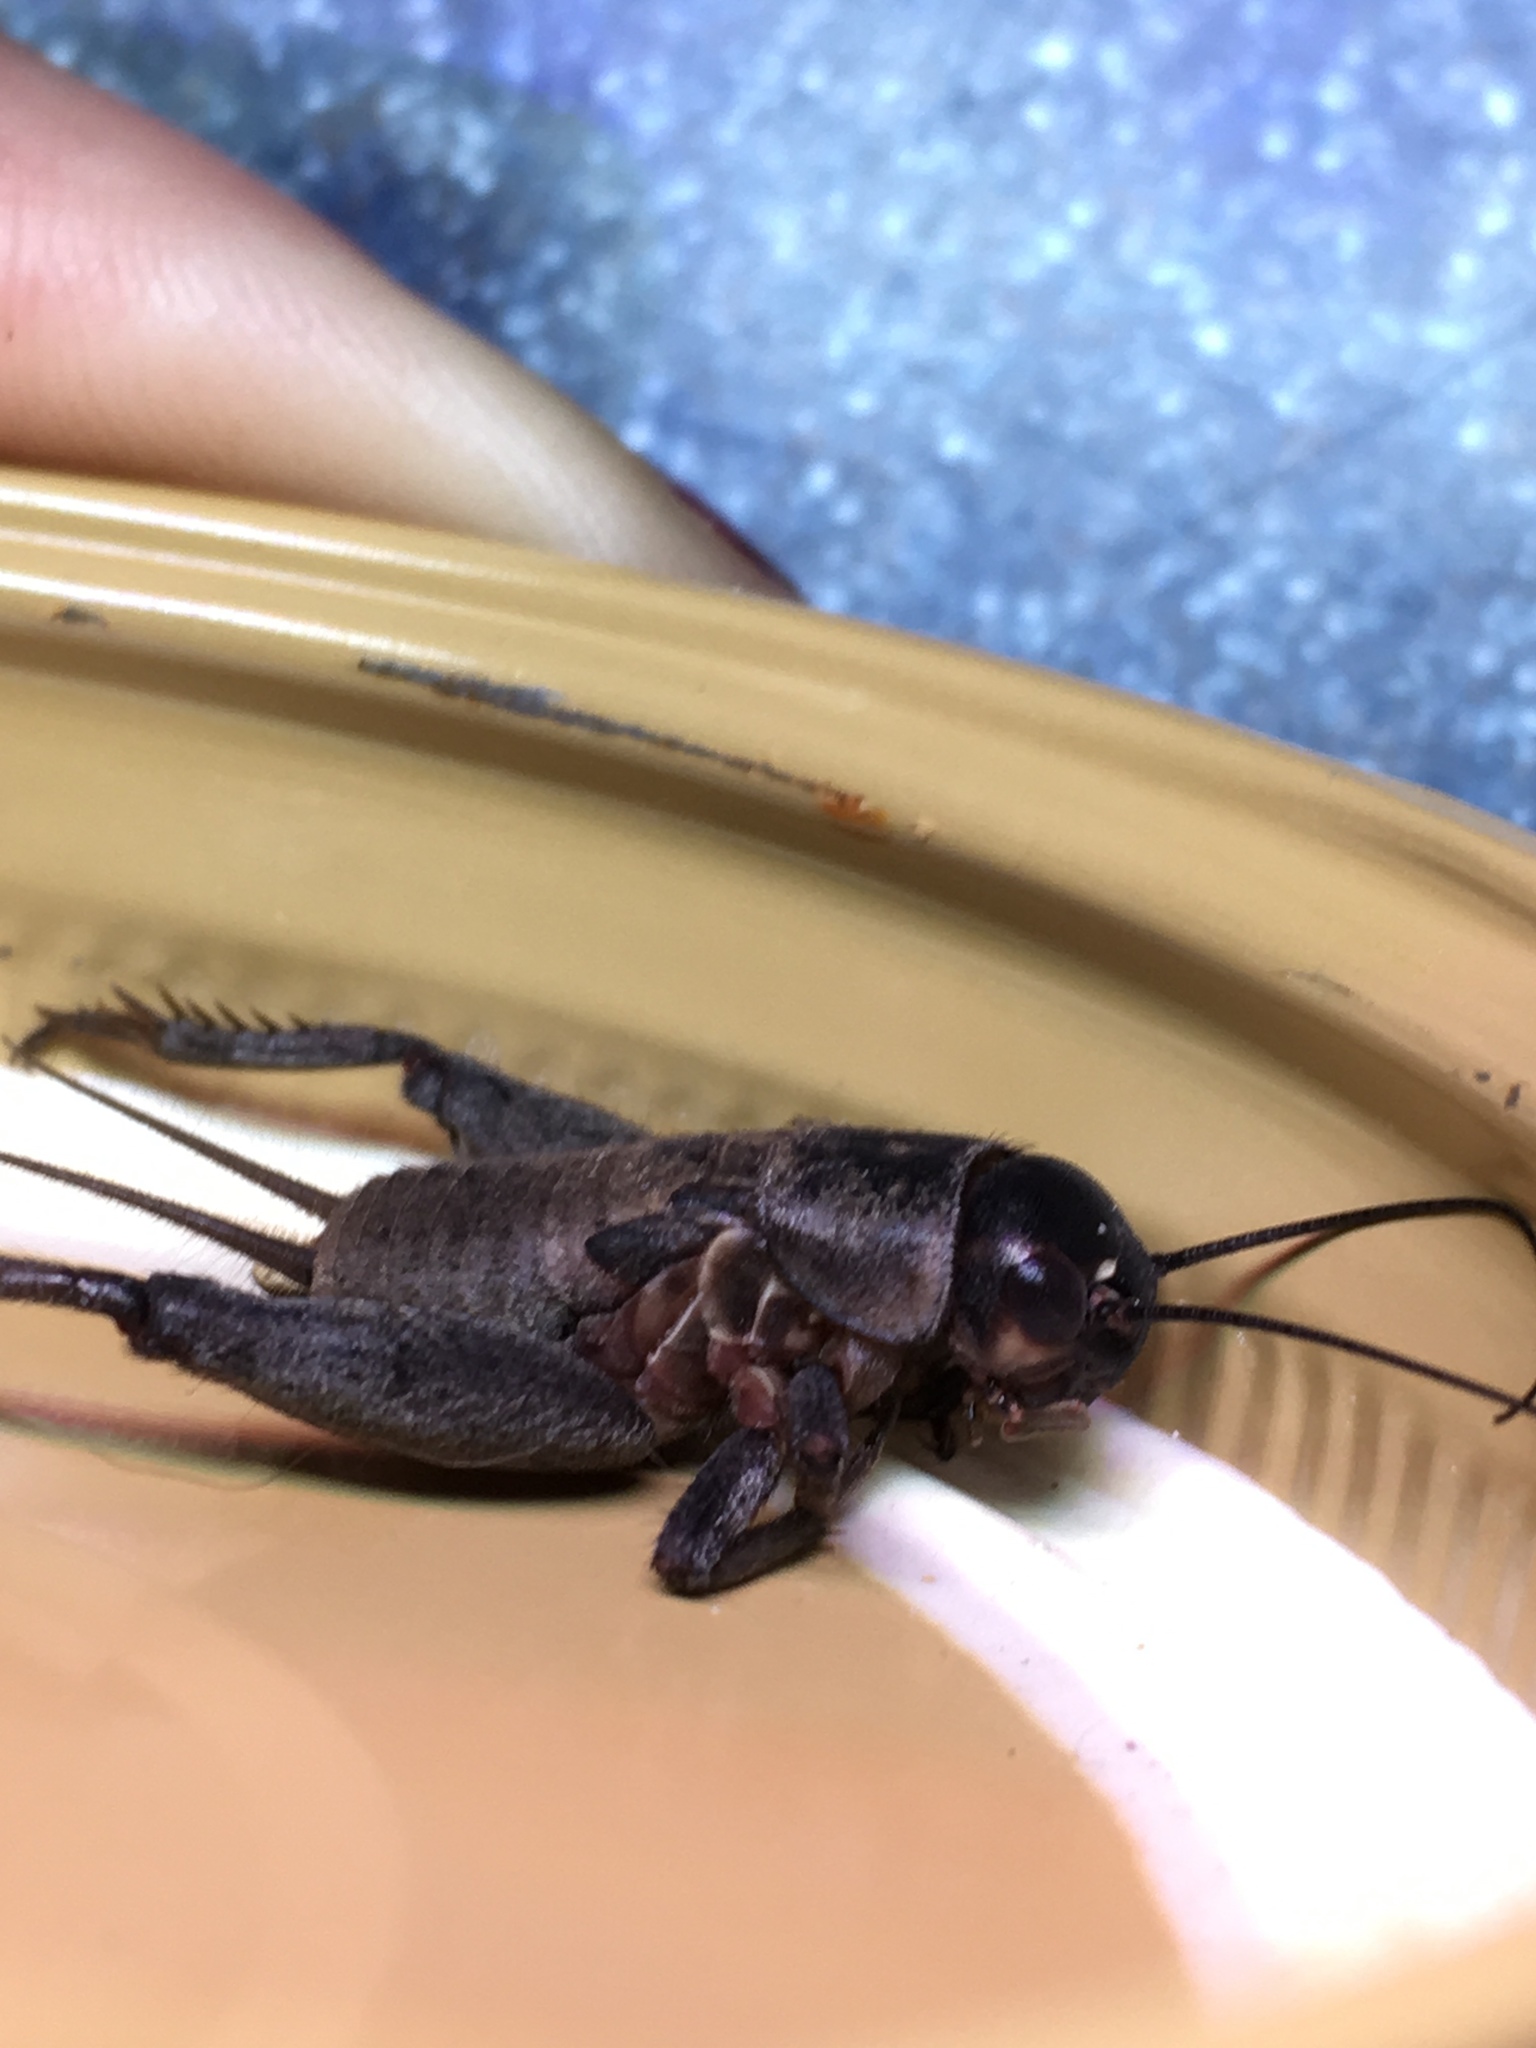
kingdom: Animalia
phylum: Arthropoda
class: Insecta
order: Orthoptera
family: Gryllidae
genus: Gryllus
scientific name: Gryllus
